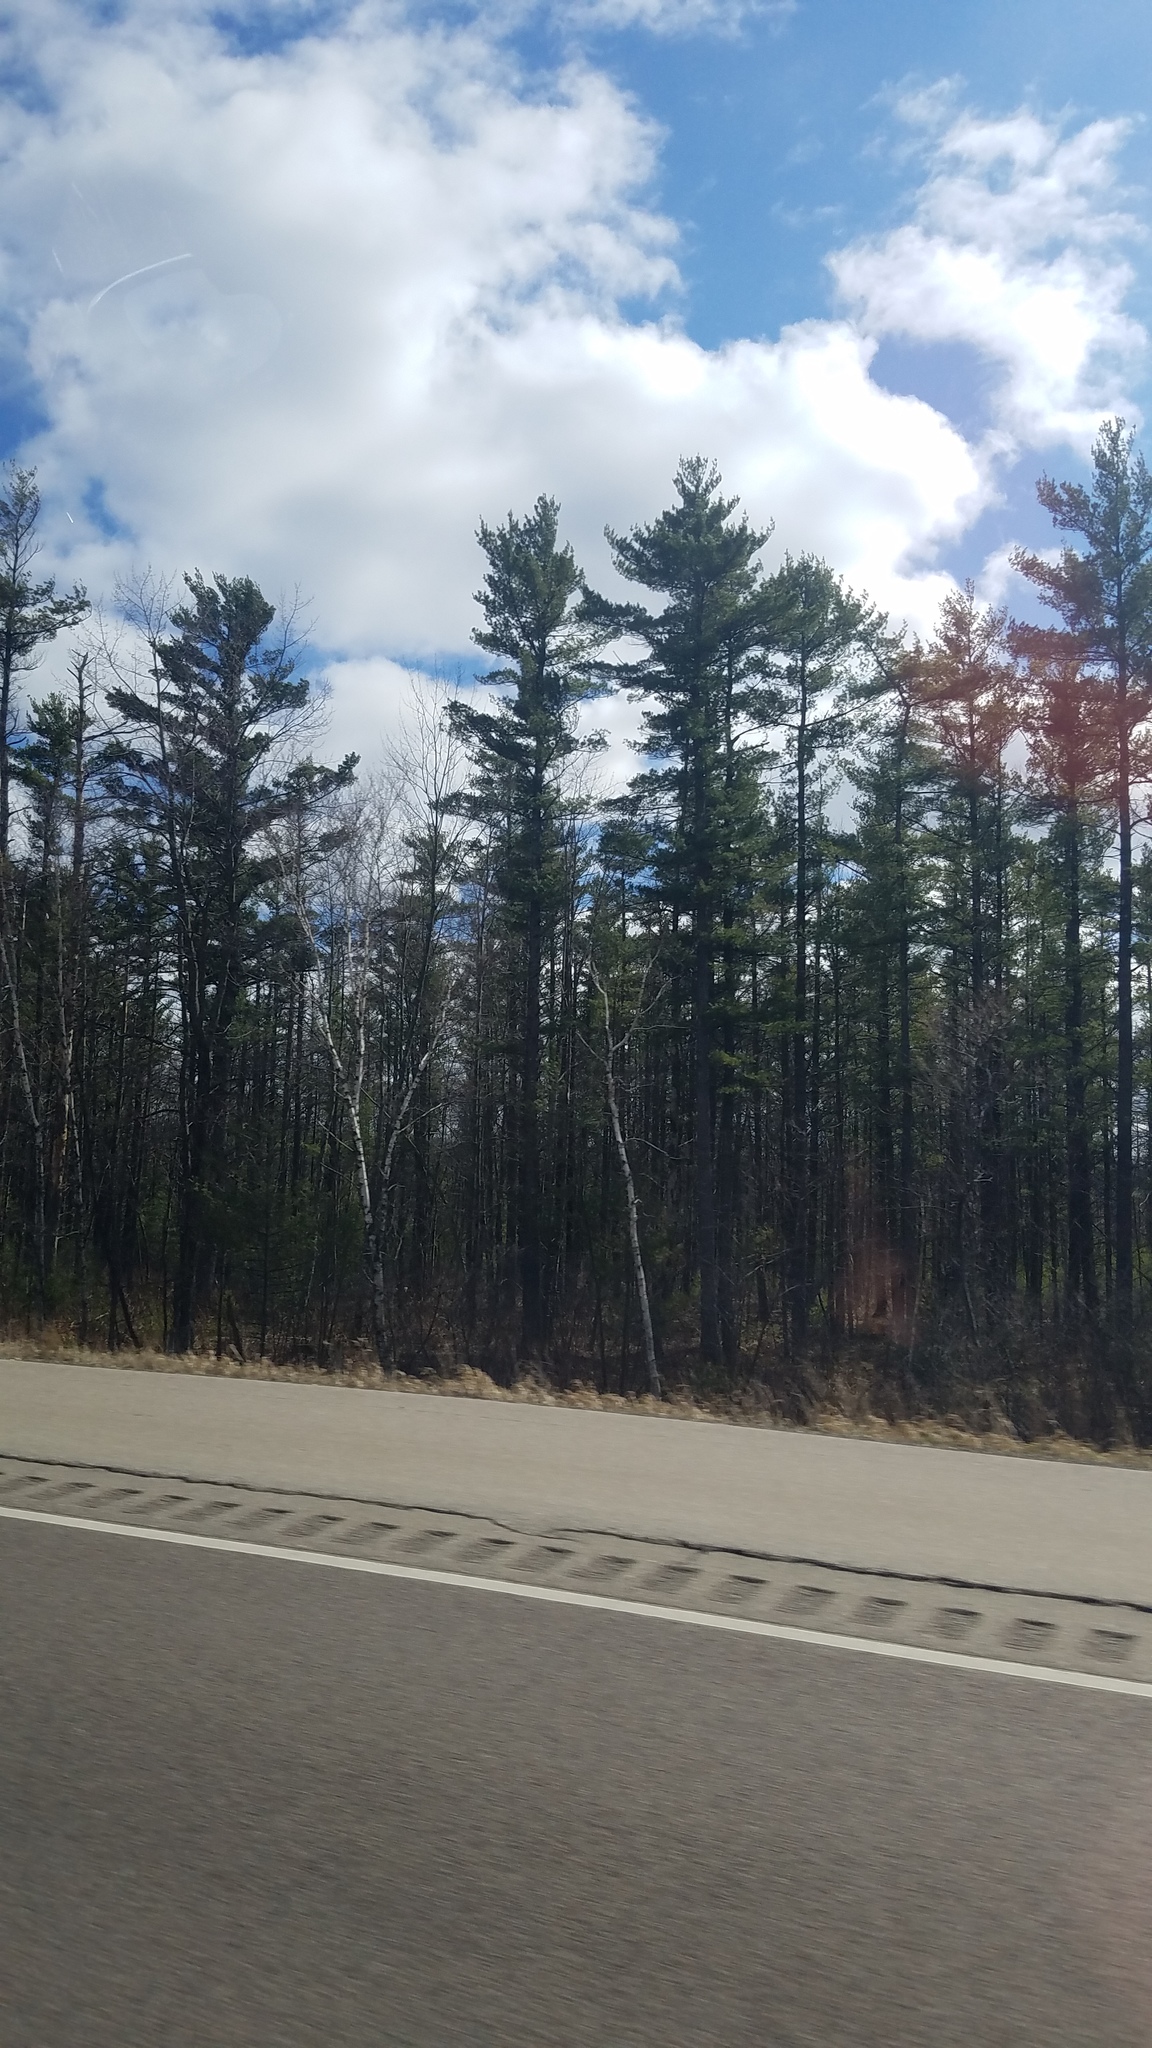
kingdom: Plantae
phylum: Tracheophyta
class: Pinopsida
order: Pinales
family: Pinaceae
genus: Pinus
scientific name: Pinus strobus
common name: Weymouth pine
